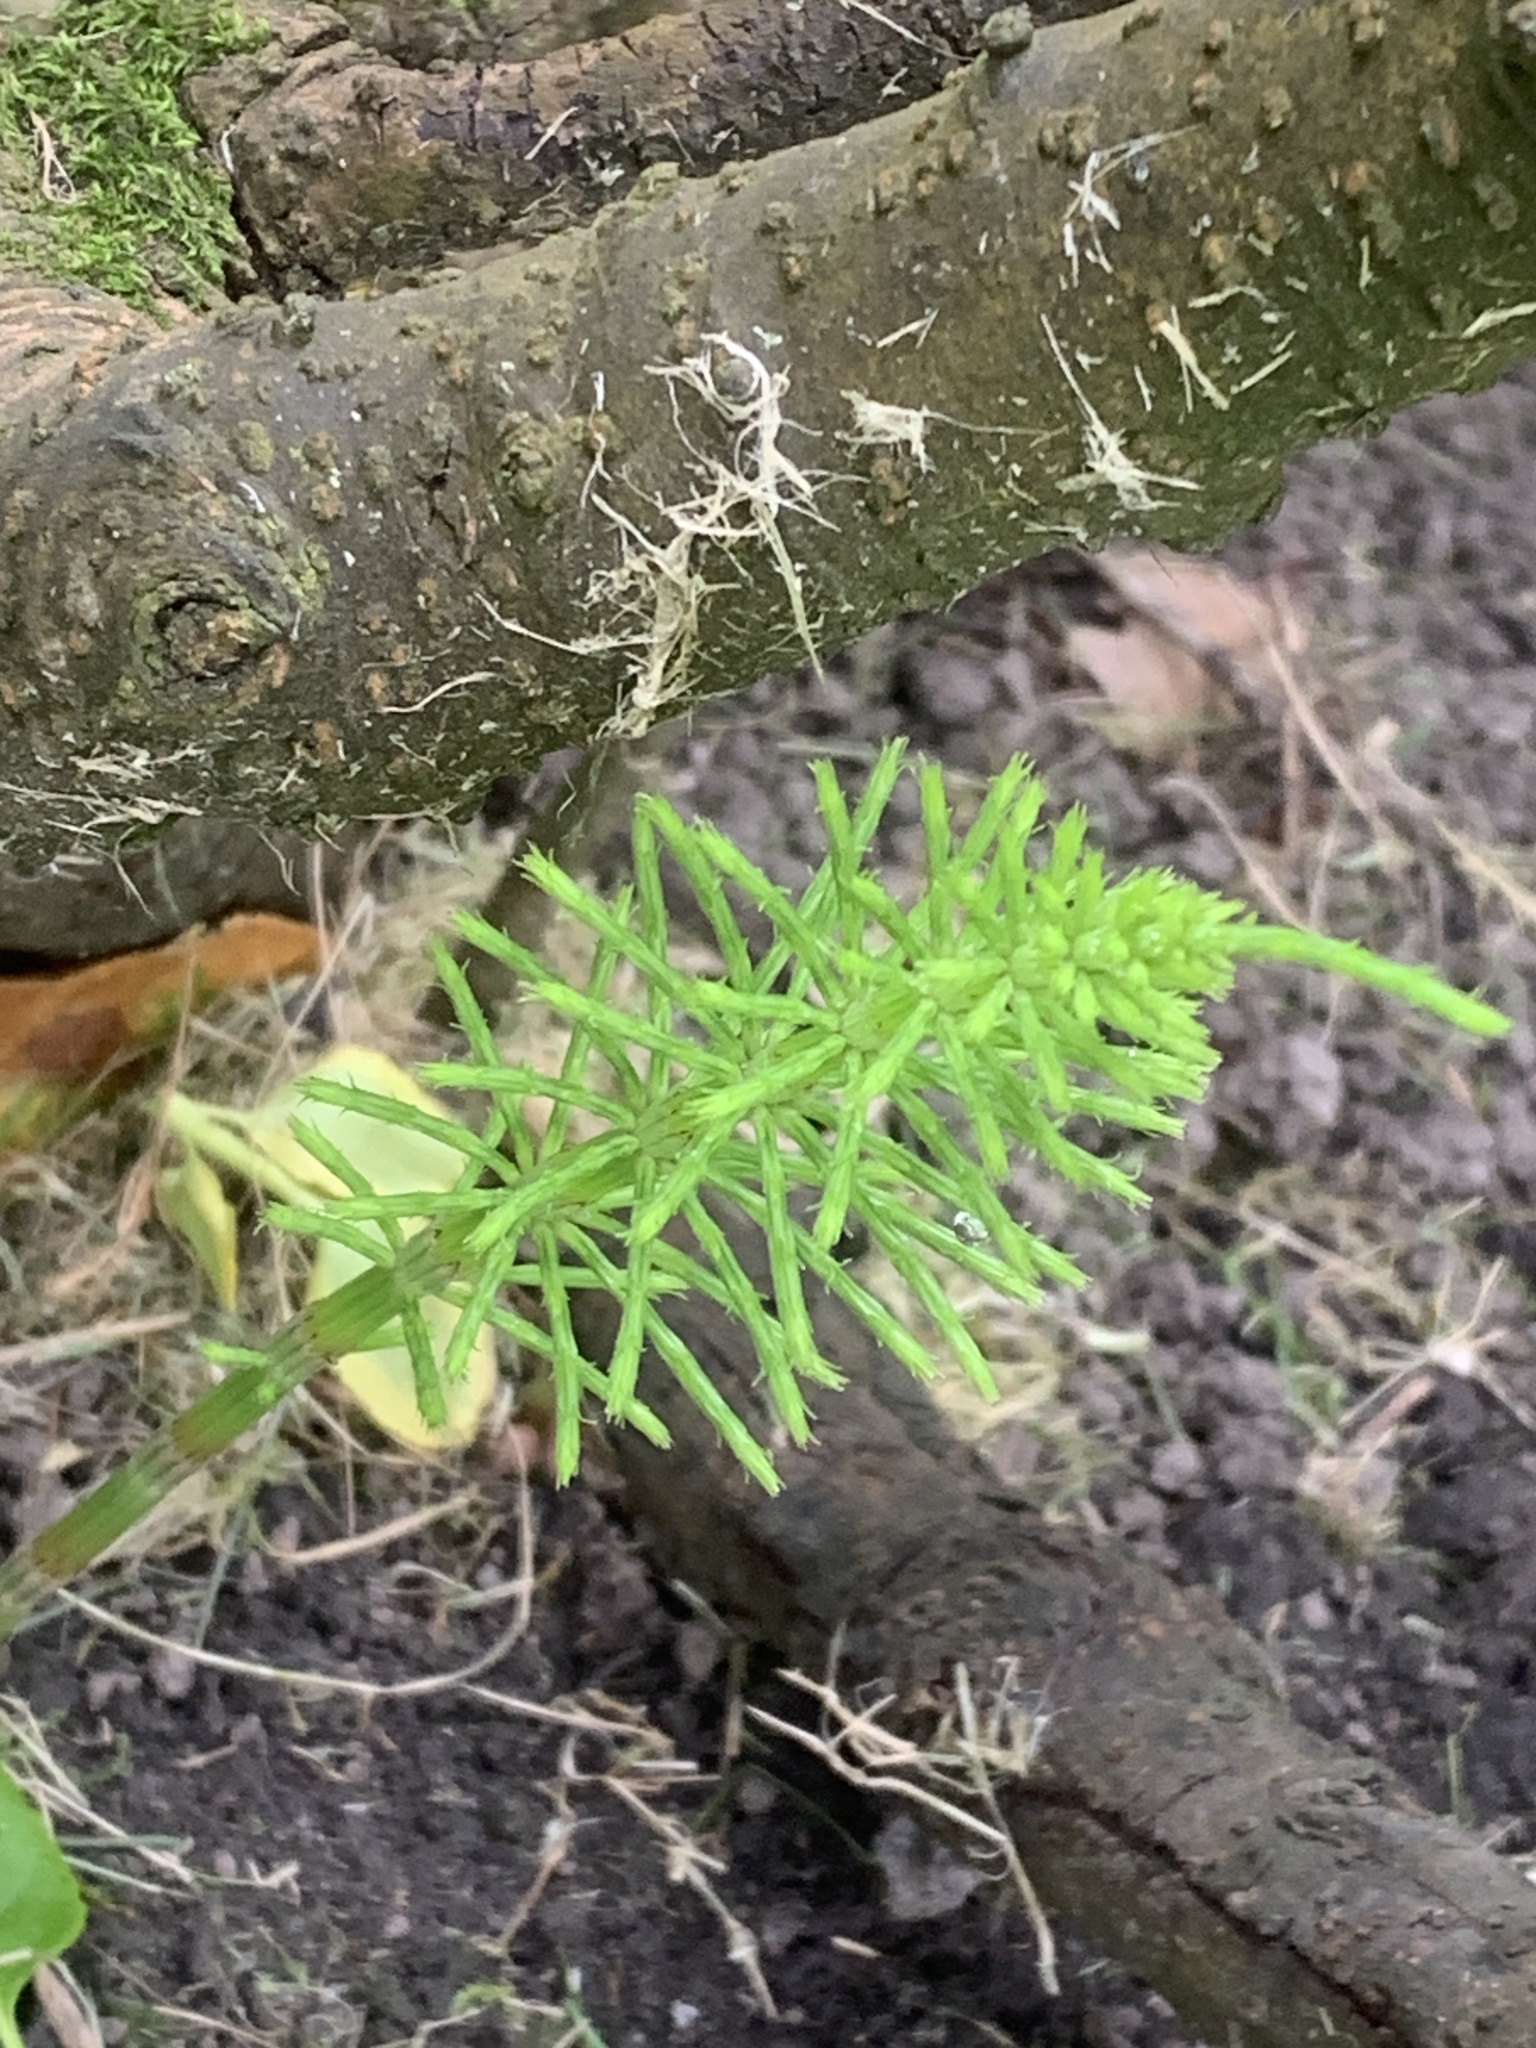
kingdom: Plantae
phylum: Tracheophyta
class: Polypodiopsida
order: Equisetales
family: Equisetaceae
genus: Equisetum
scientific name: Equisetum arvense
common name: Field horsetail
